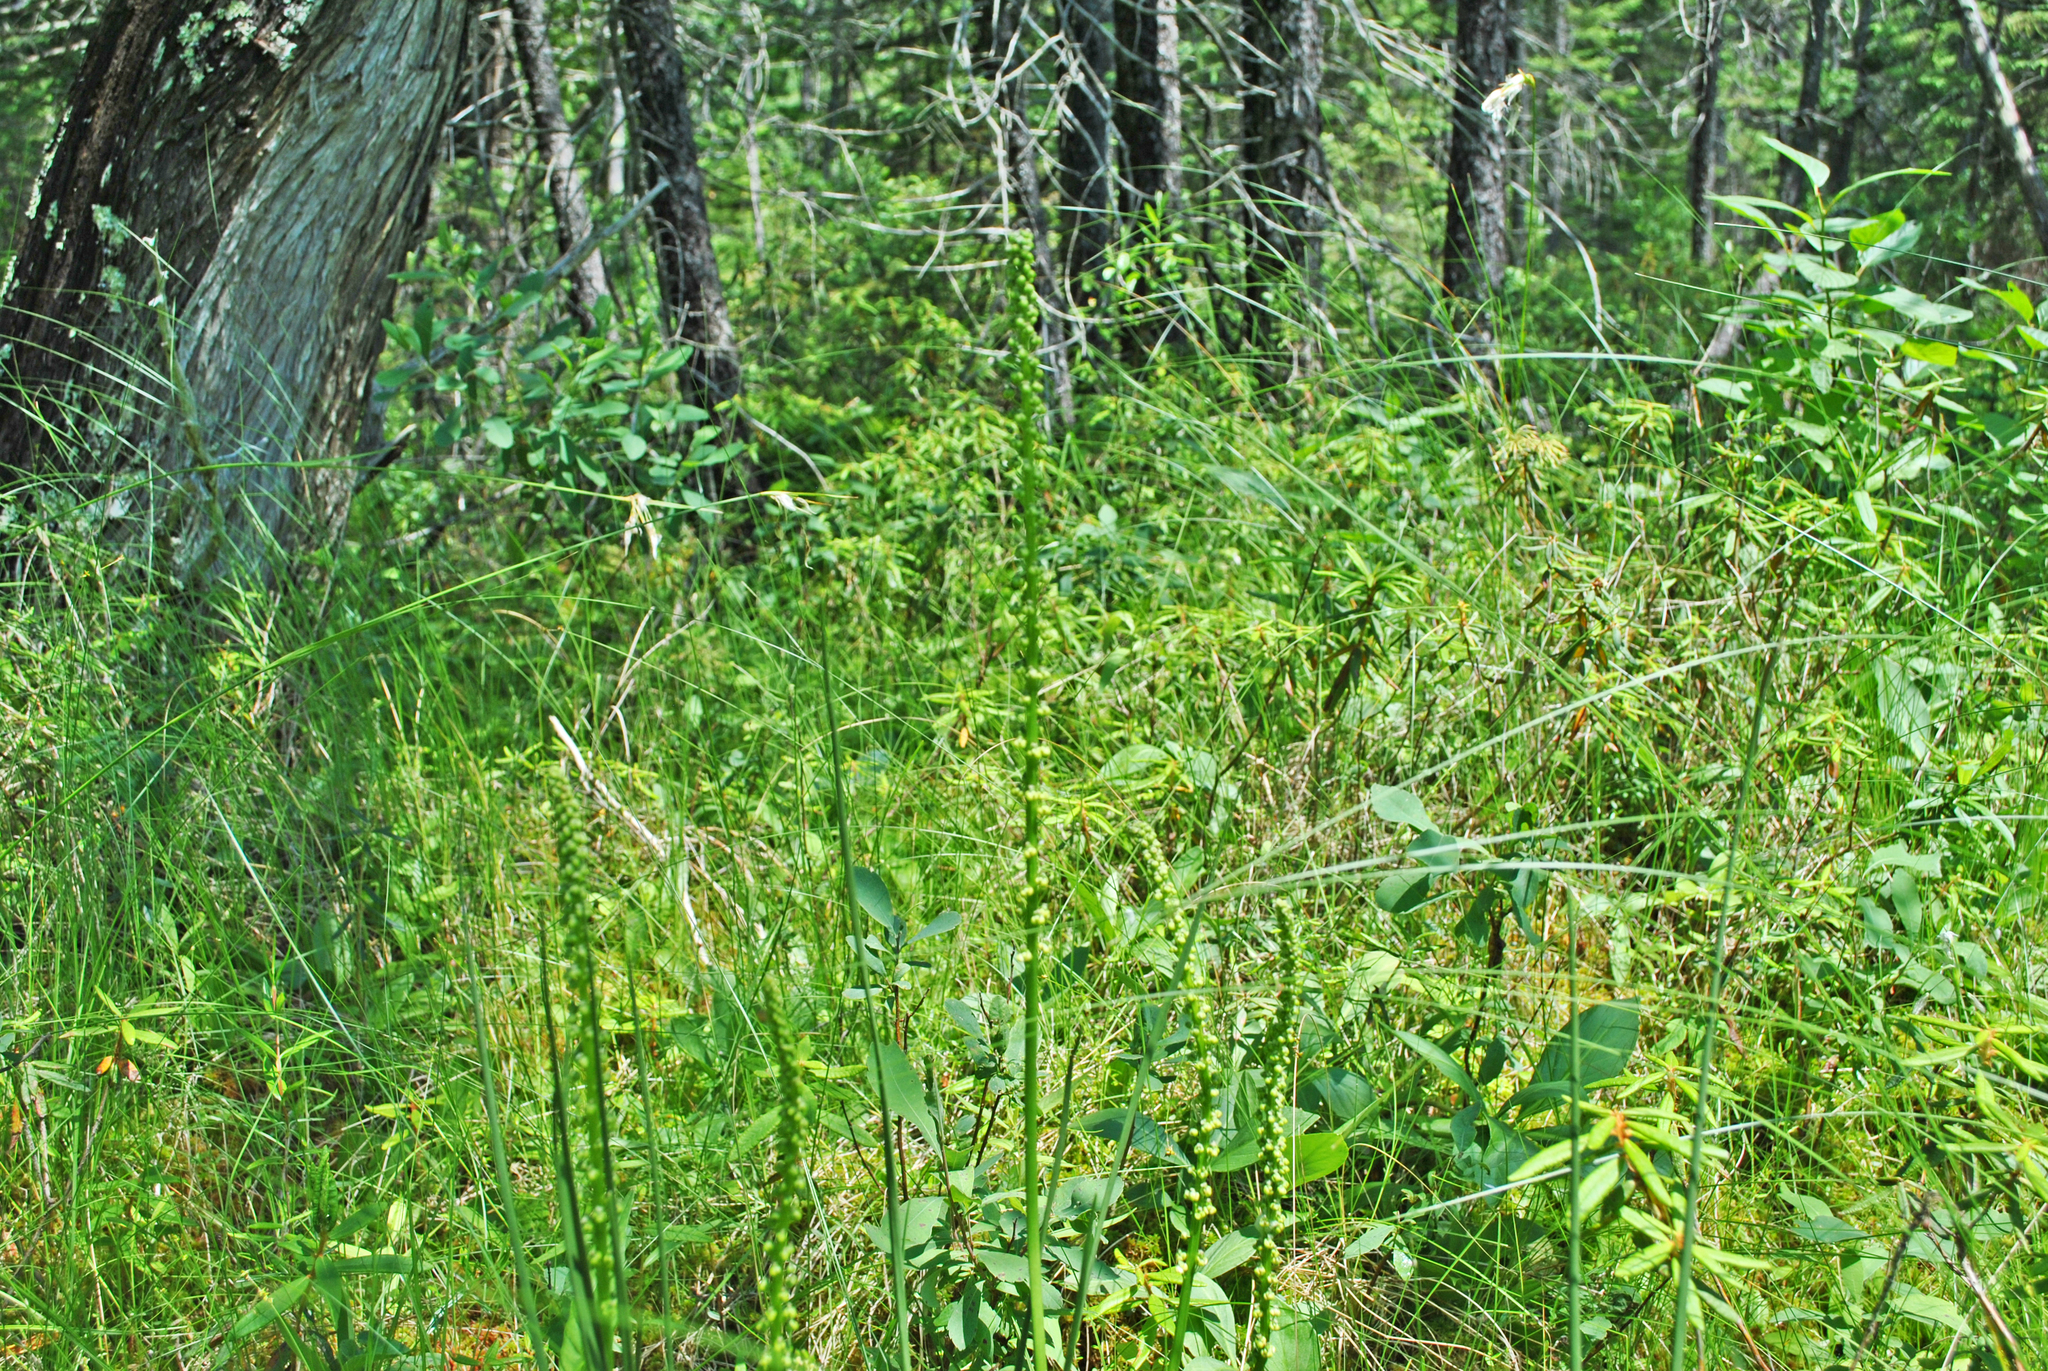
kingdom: Plantae
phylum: Tracheophyta
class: Liliopsida
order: Alismatales
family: Juncaginaceae
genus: Triglochin
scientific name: Triglochin maritima
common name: Sea arrowgrass
